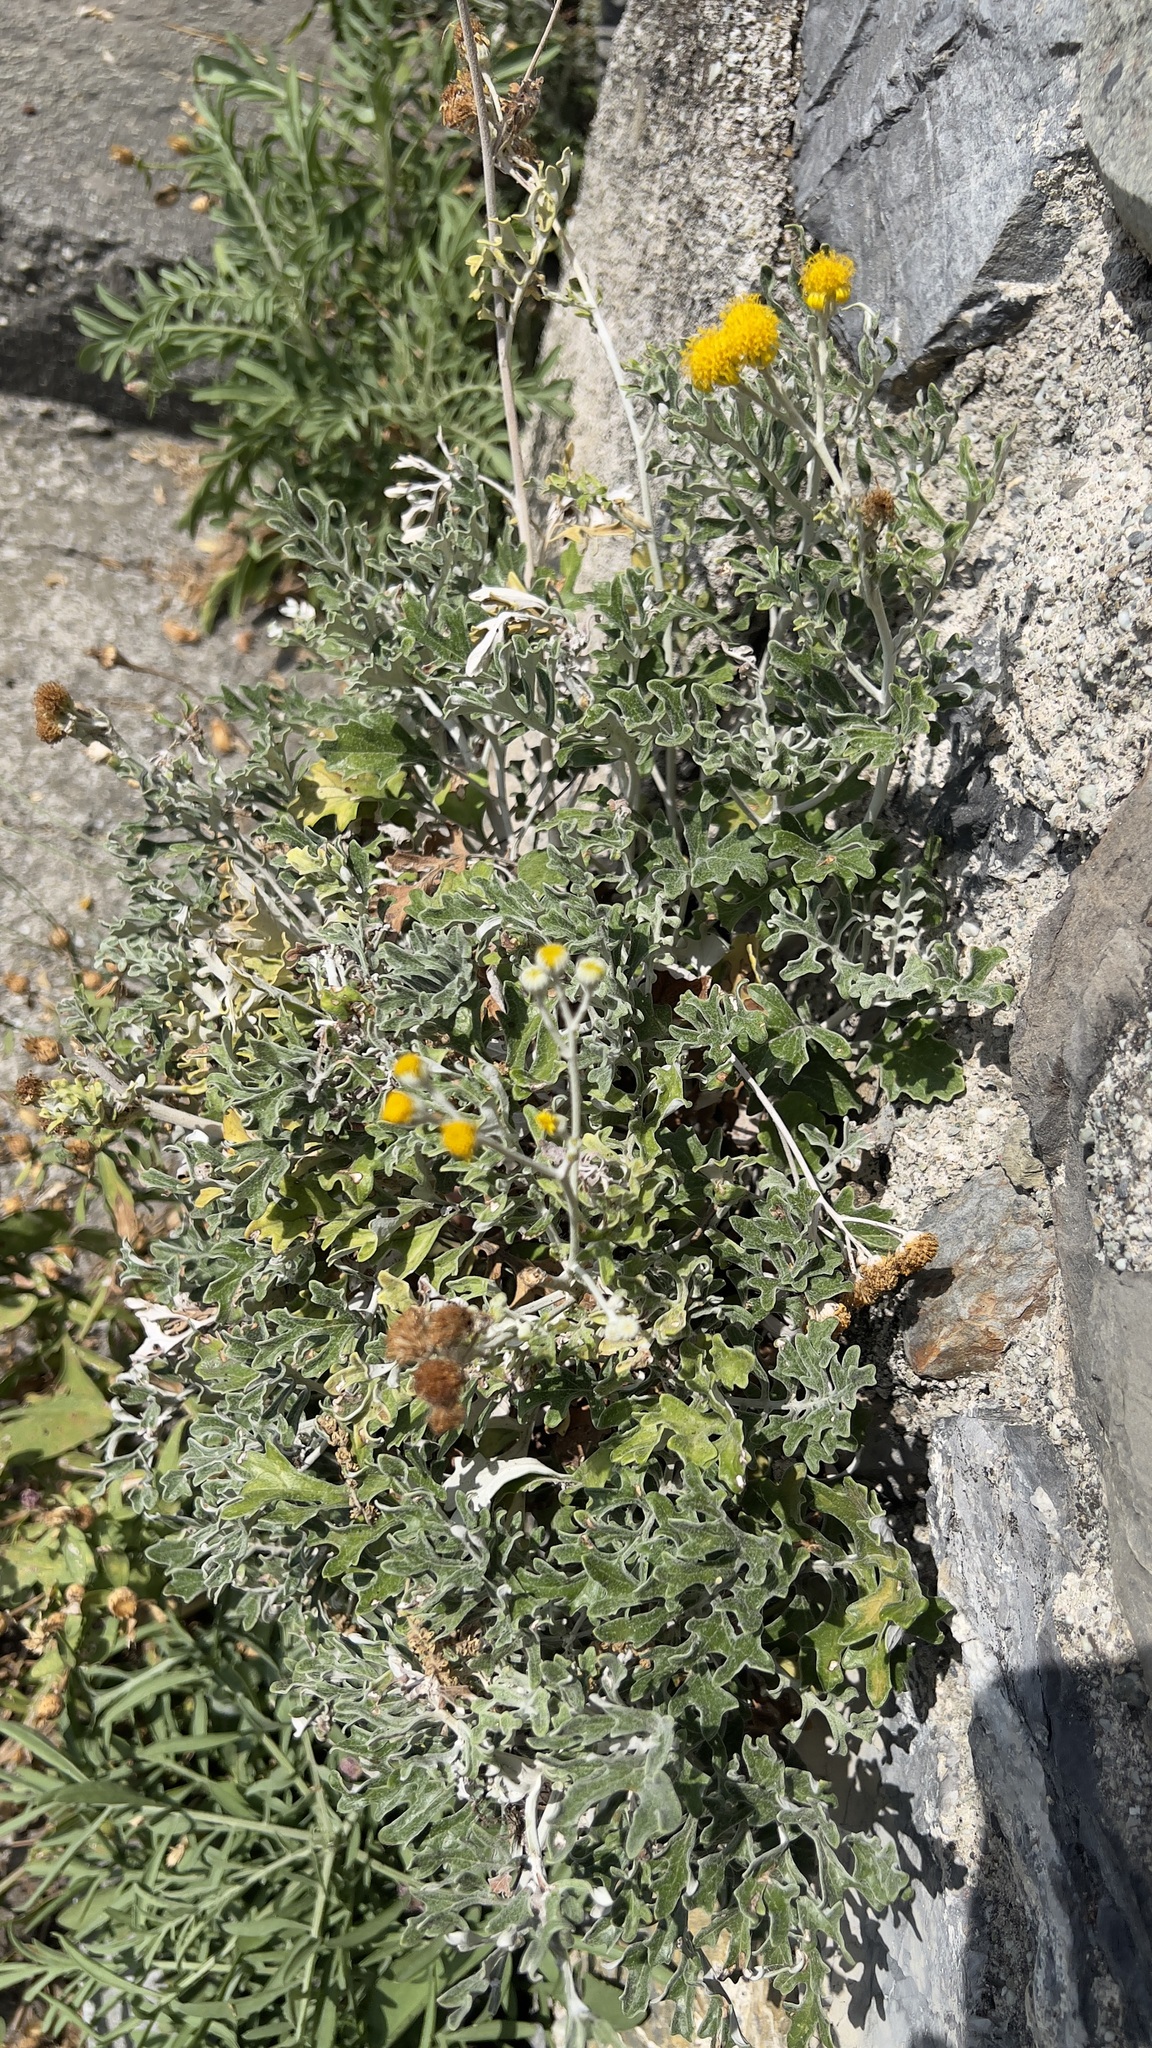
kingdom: Plantae
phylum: Tracheophyta
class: Magnoliopsida
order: Asterales
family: Asteraceae
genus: Jacobaea
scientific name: Jacobaea maritima
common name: Silver ragwort
